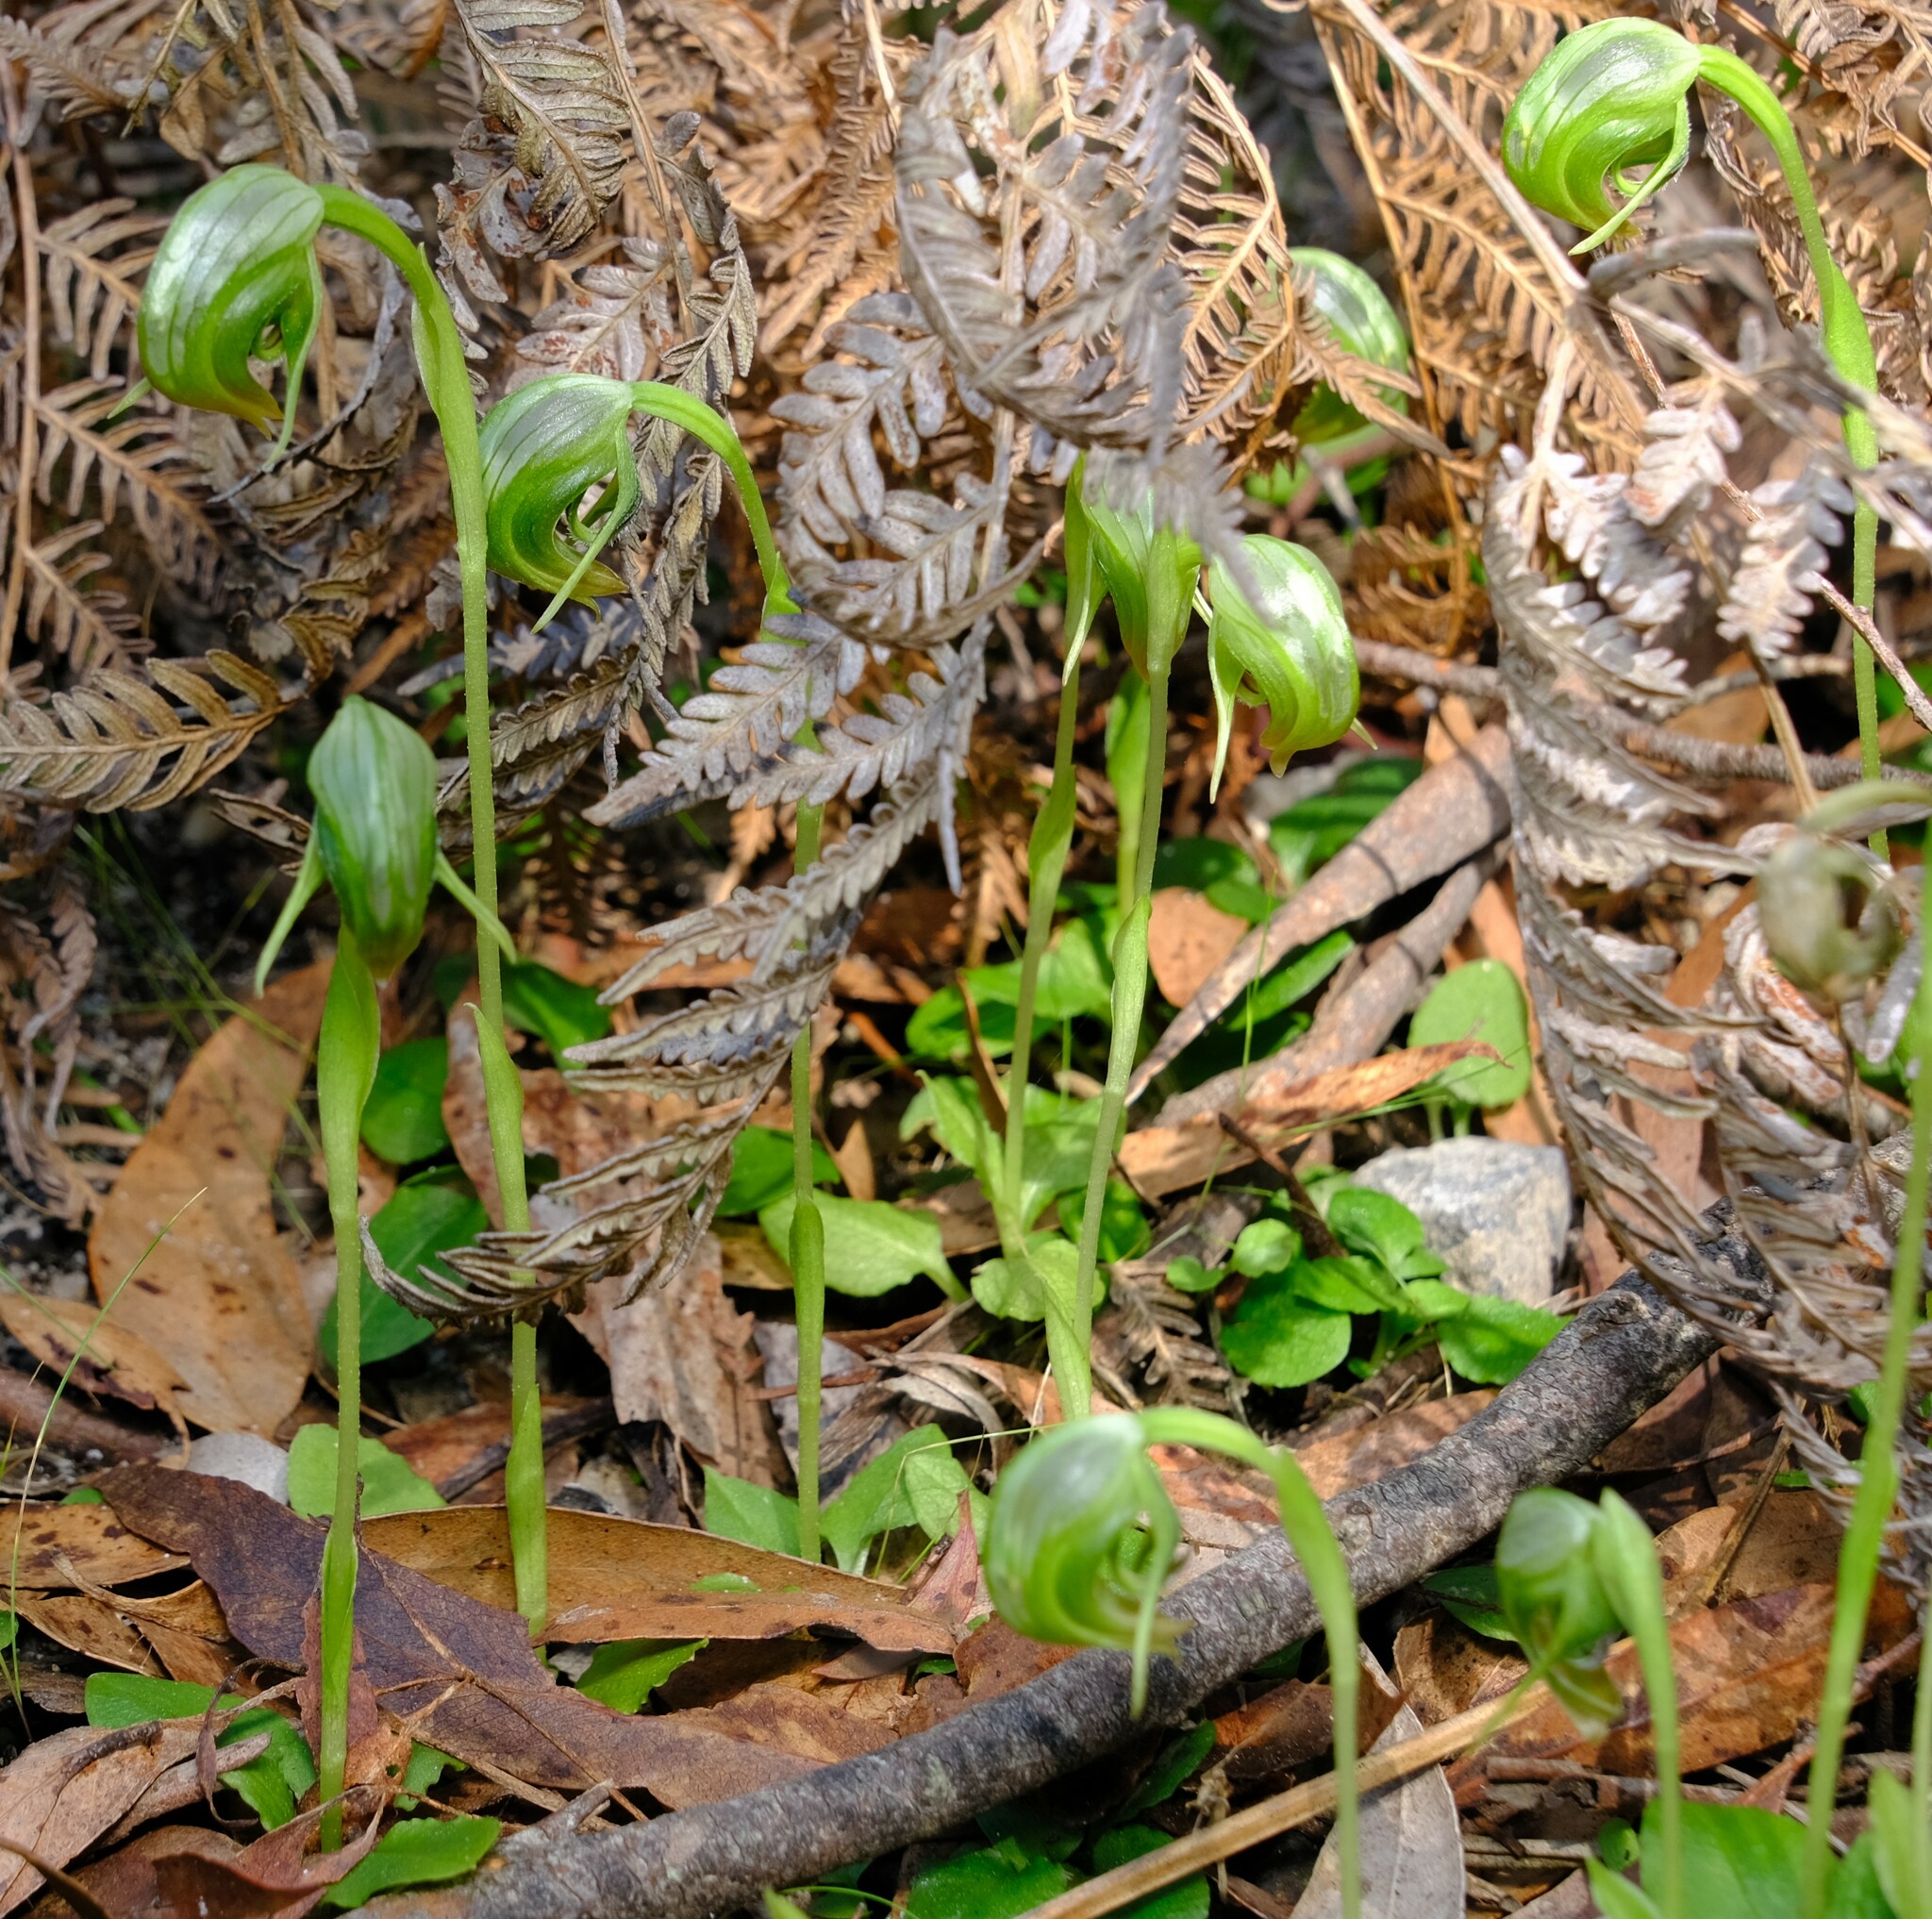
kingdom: Plantae
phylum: Tracheophyta
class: Liliopsida
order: Asparagales
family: Orchidaceae
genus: Pterostylis
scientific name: Pterostylis nutans
